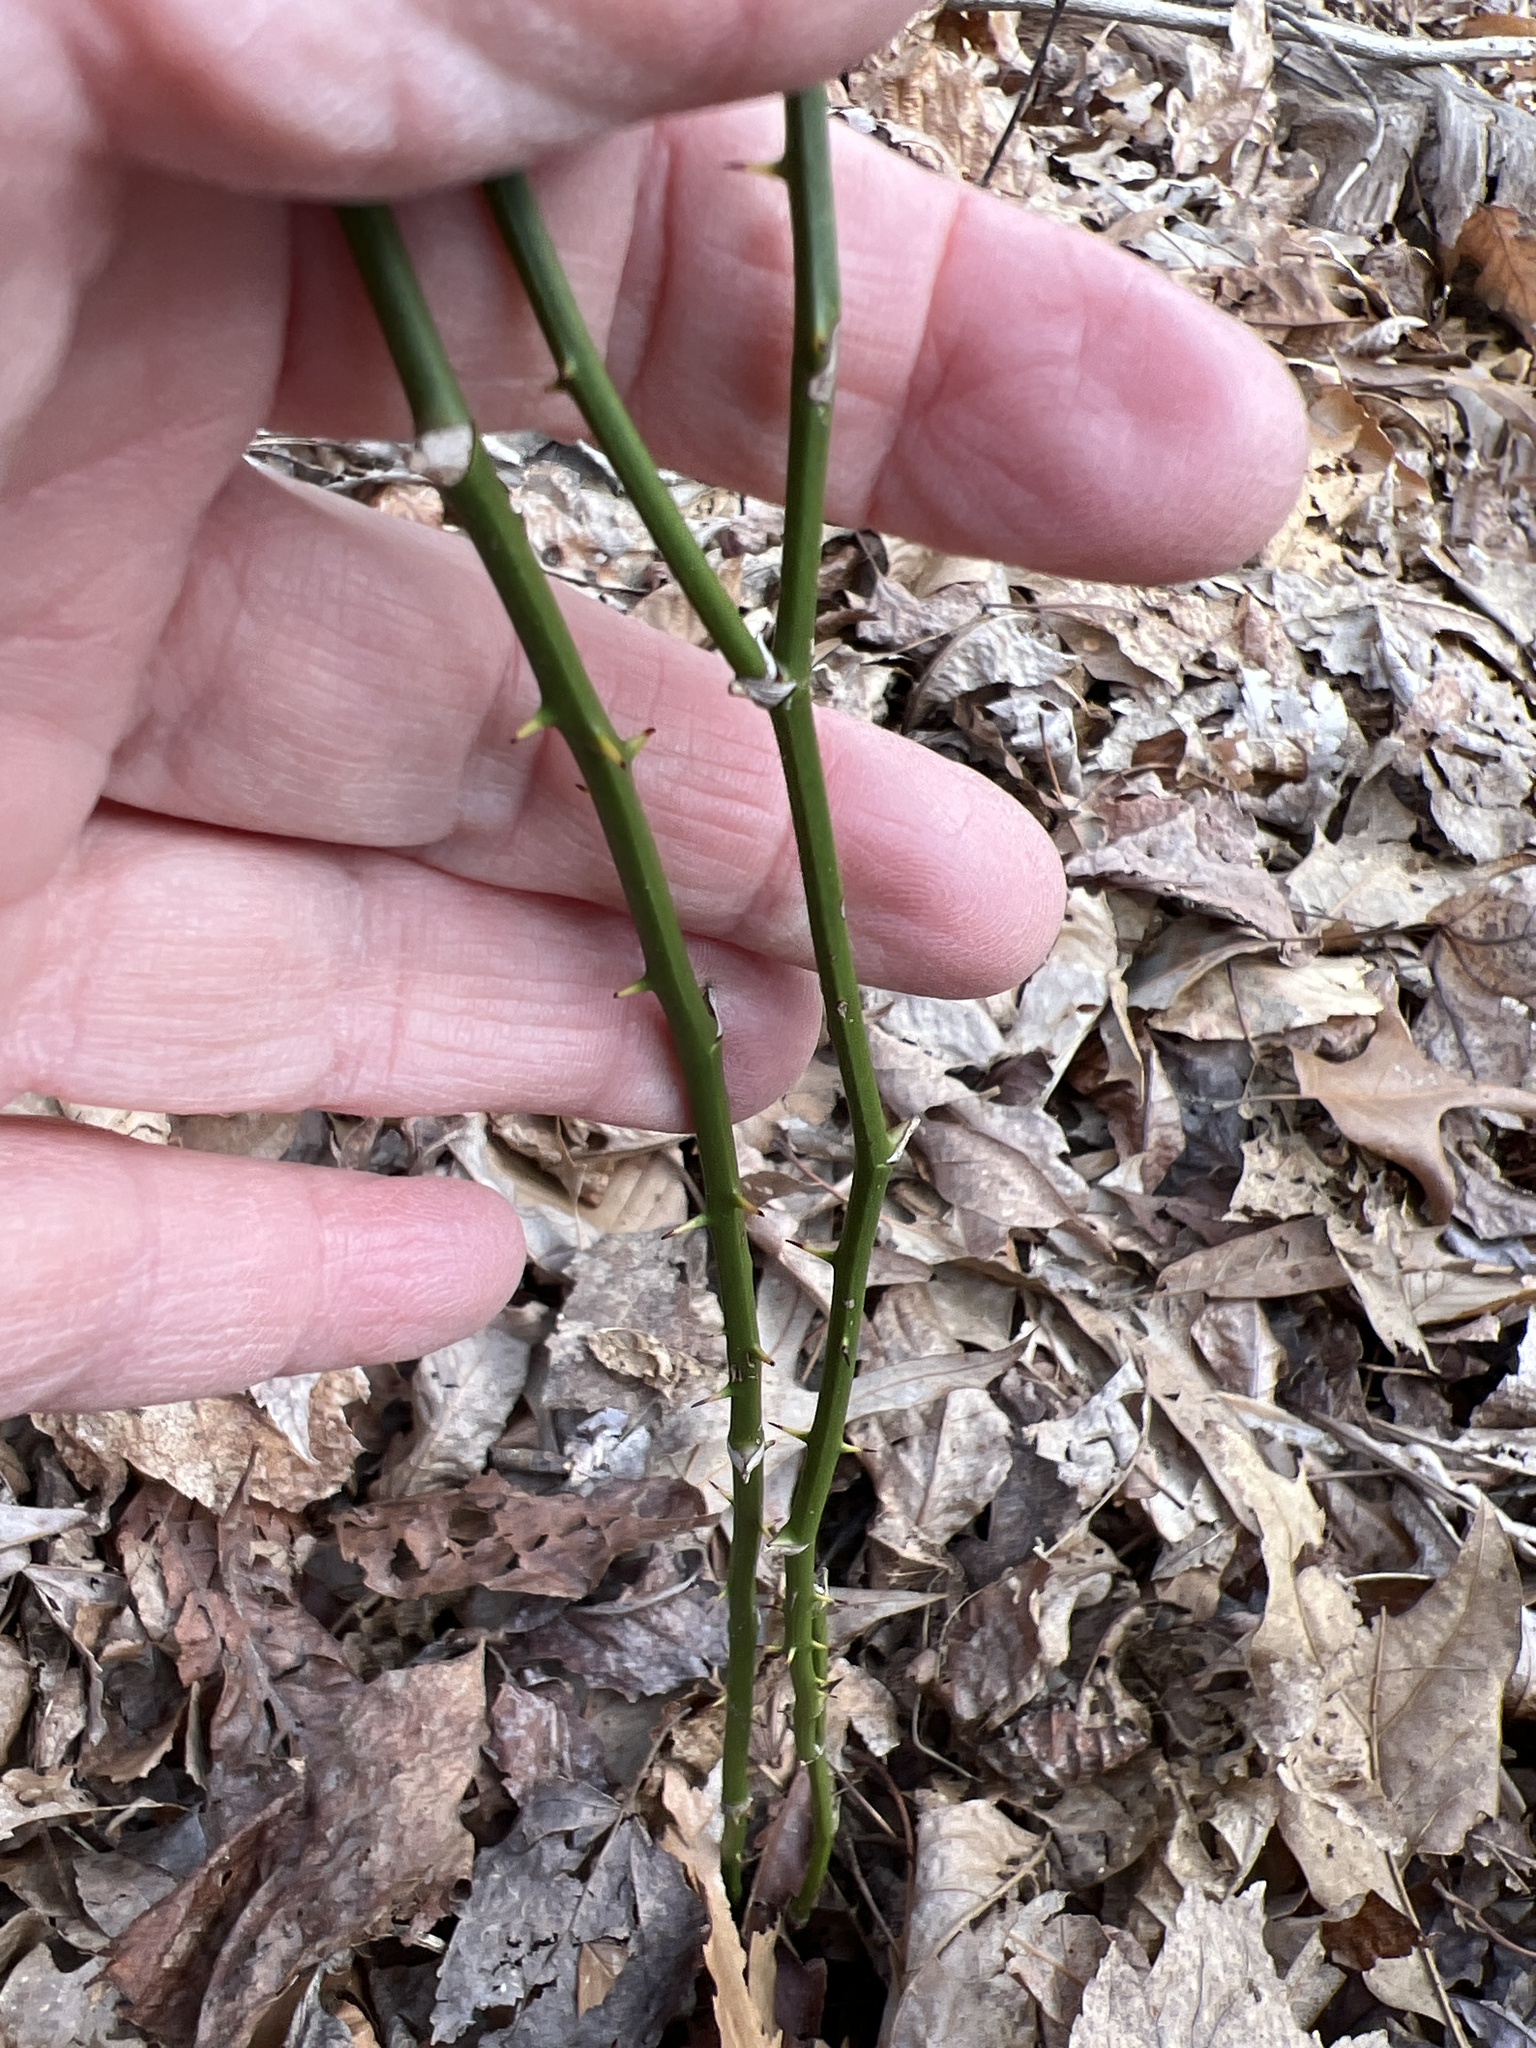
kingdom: Plantae
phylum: Tracheophyta
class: Liliopsida
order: Liliales
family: Smilacaceae
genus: Smilax
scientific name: Smilax rotundifolia
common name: Bullbriar
